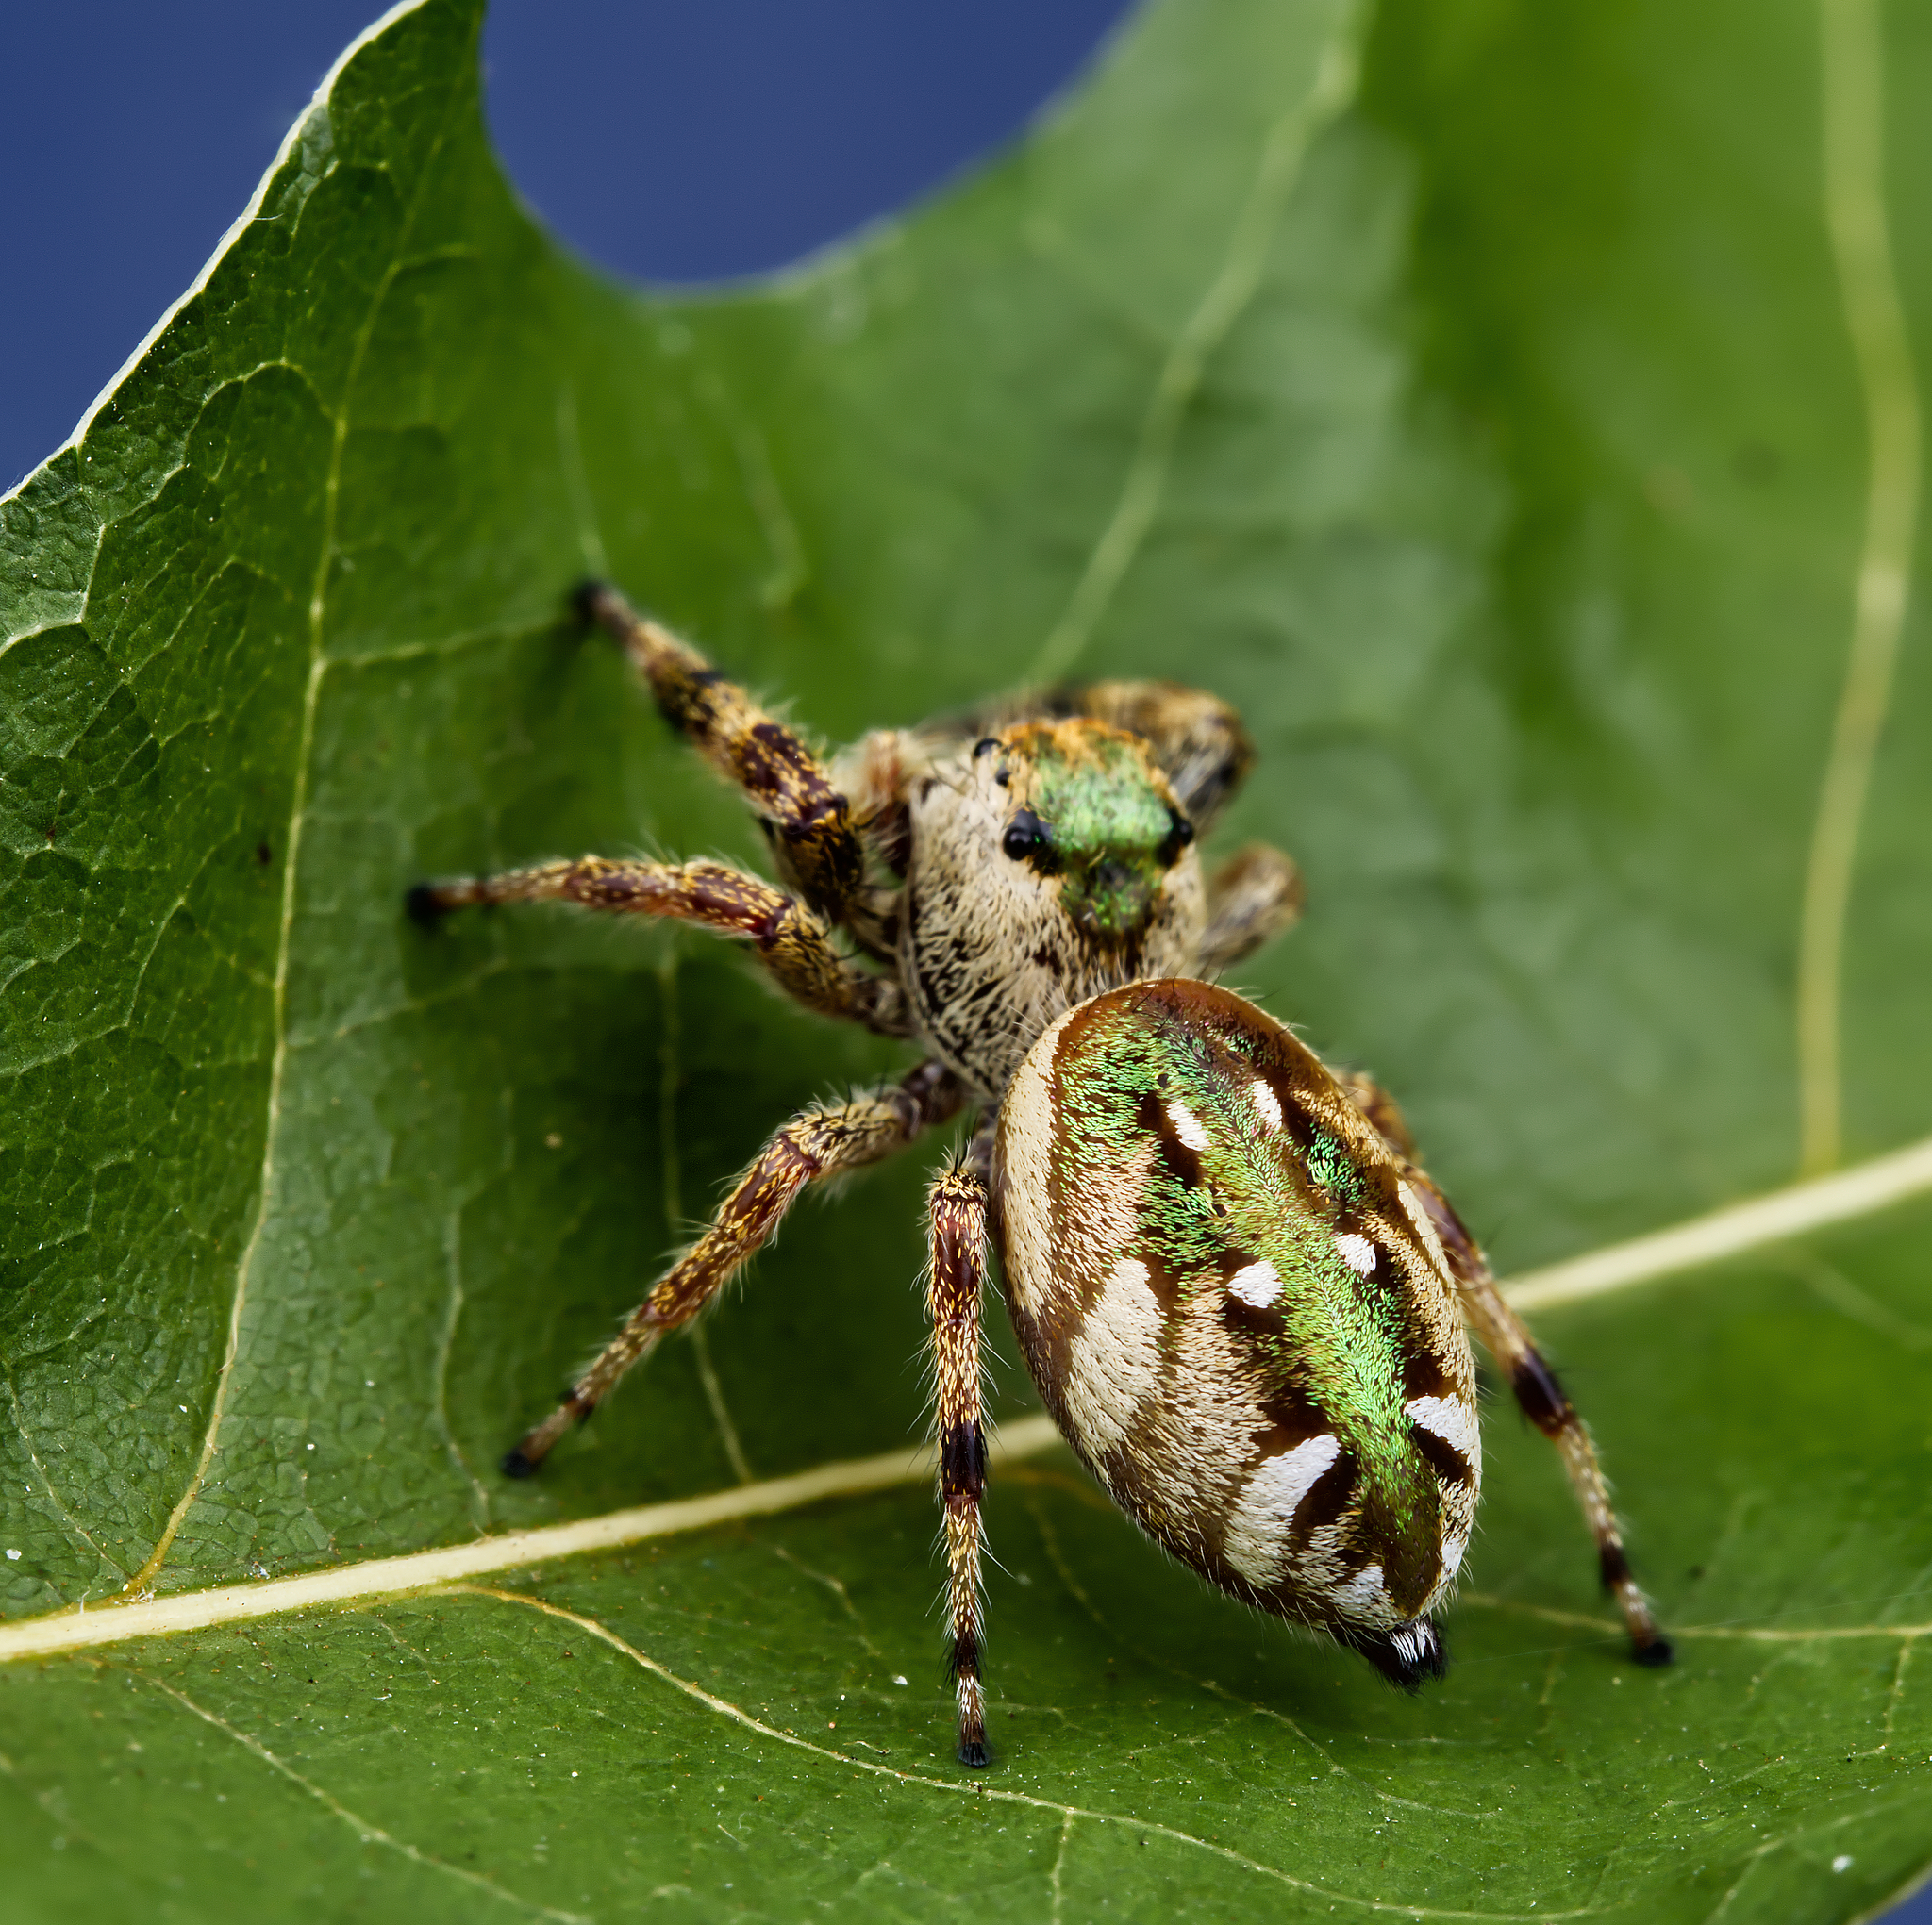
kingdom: Animalia
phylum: Arthropoda
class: Arachnida
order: Araneae
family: Salticidae
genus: Paraphidippus
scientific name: Paraphidippus aurantius
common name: Jumping spiders
